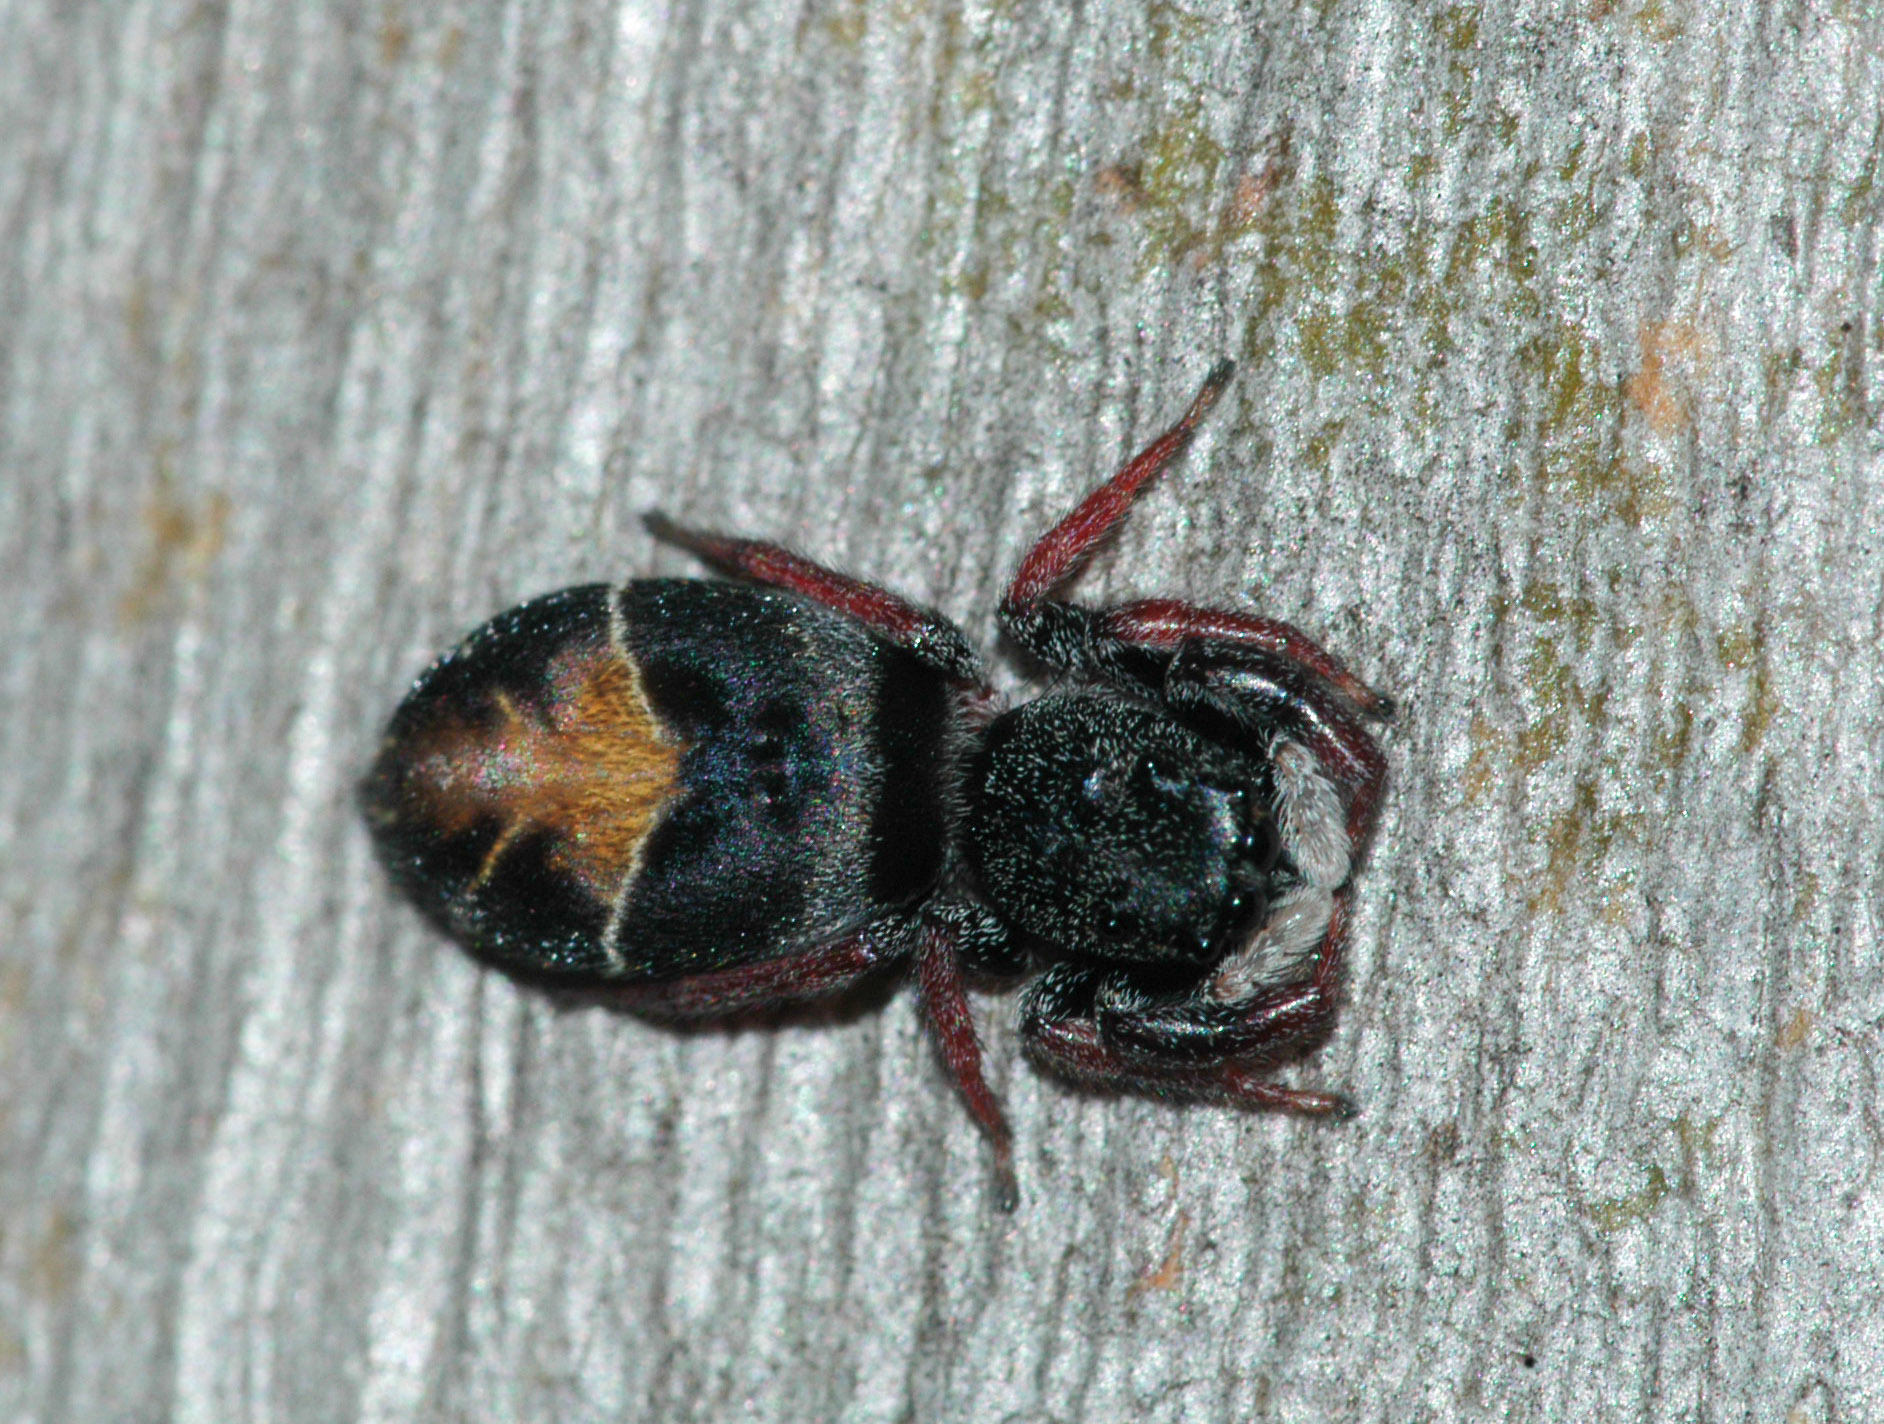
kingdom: Animalia
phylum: Arthropoda
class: Arachnida
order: Araneae
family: Salticidae
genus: Apricia
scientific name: Apricia jovialis
